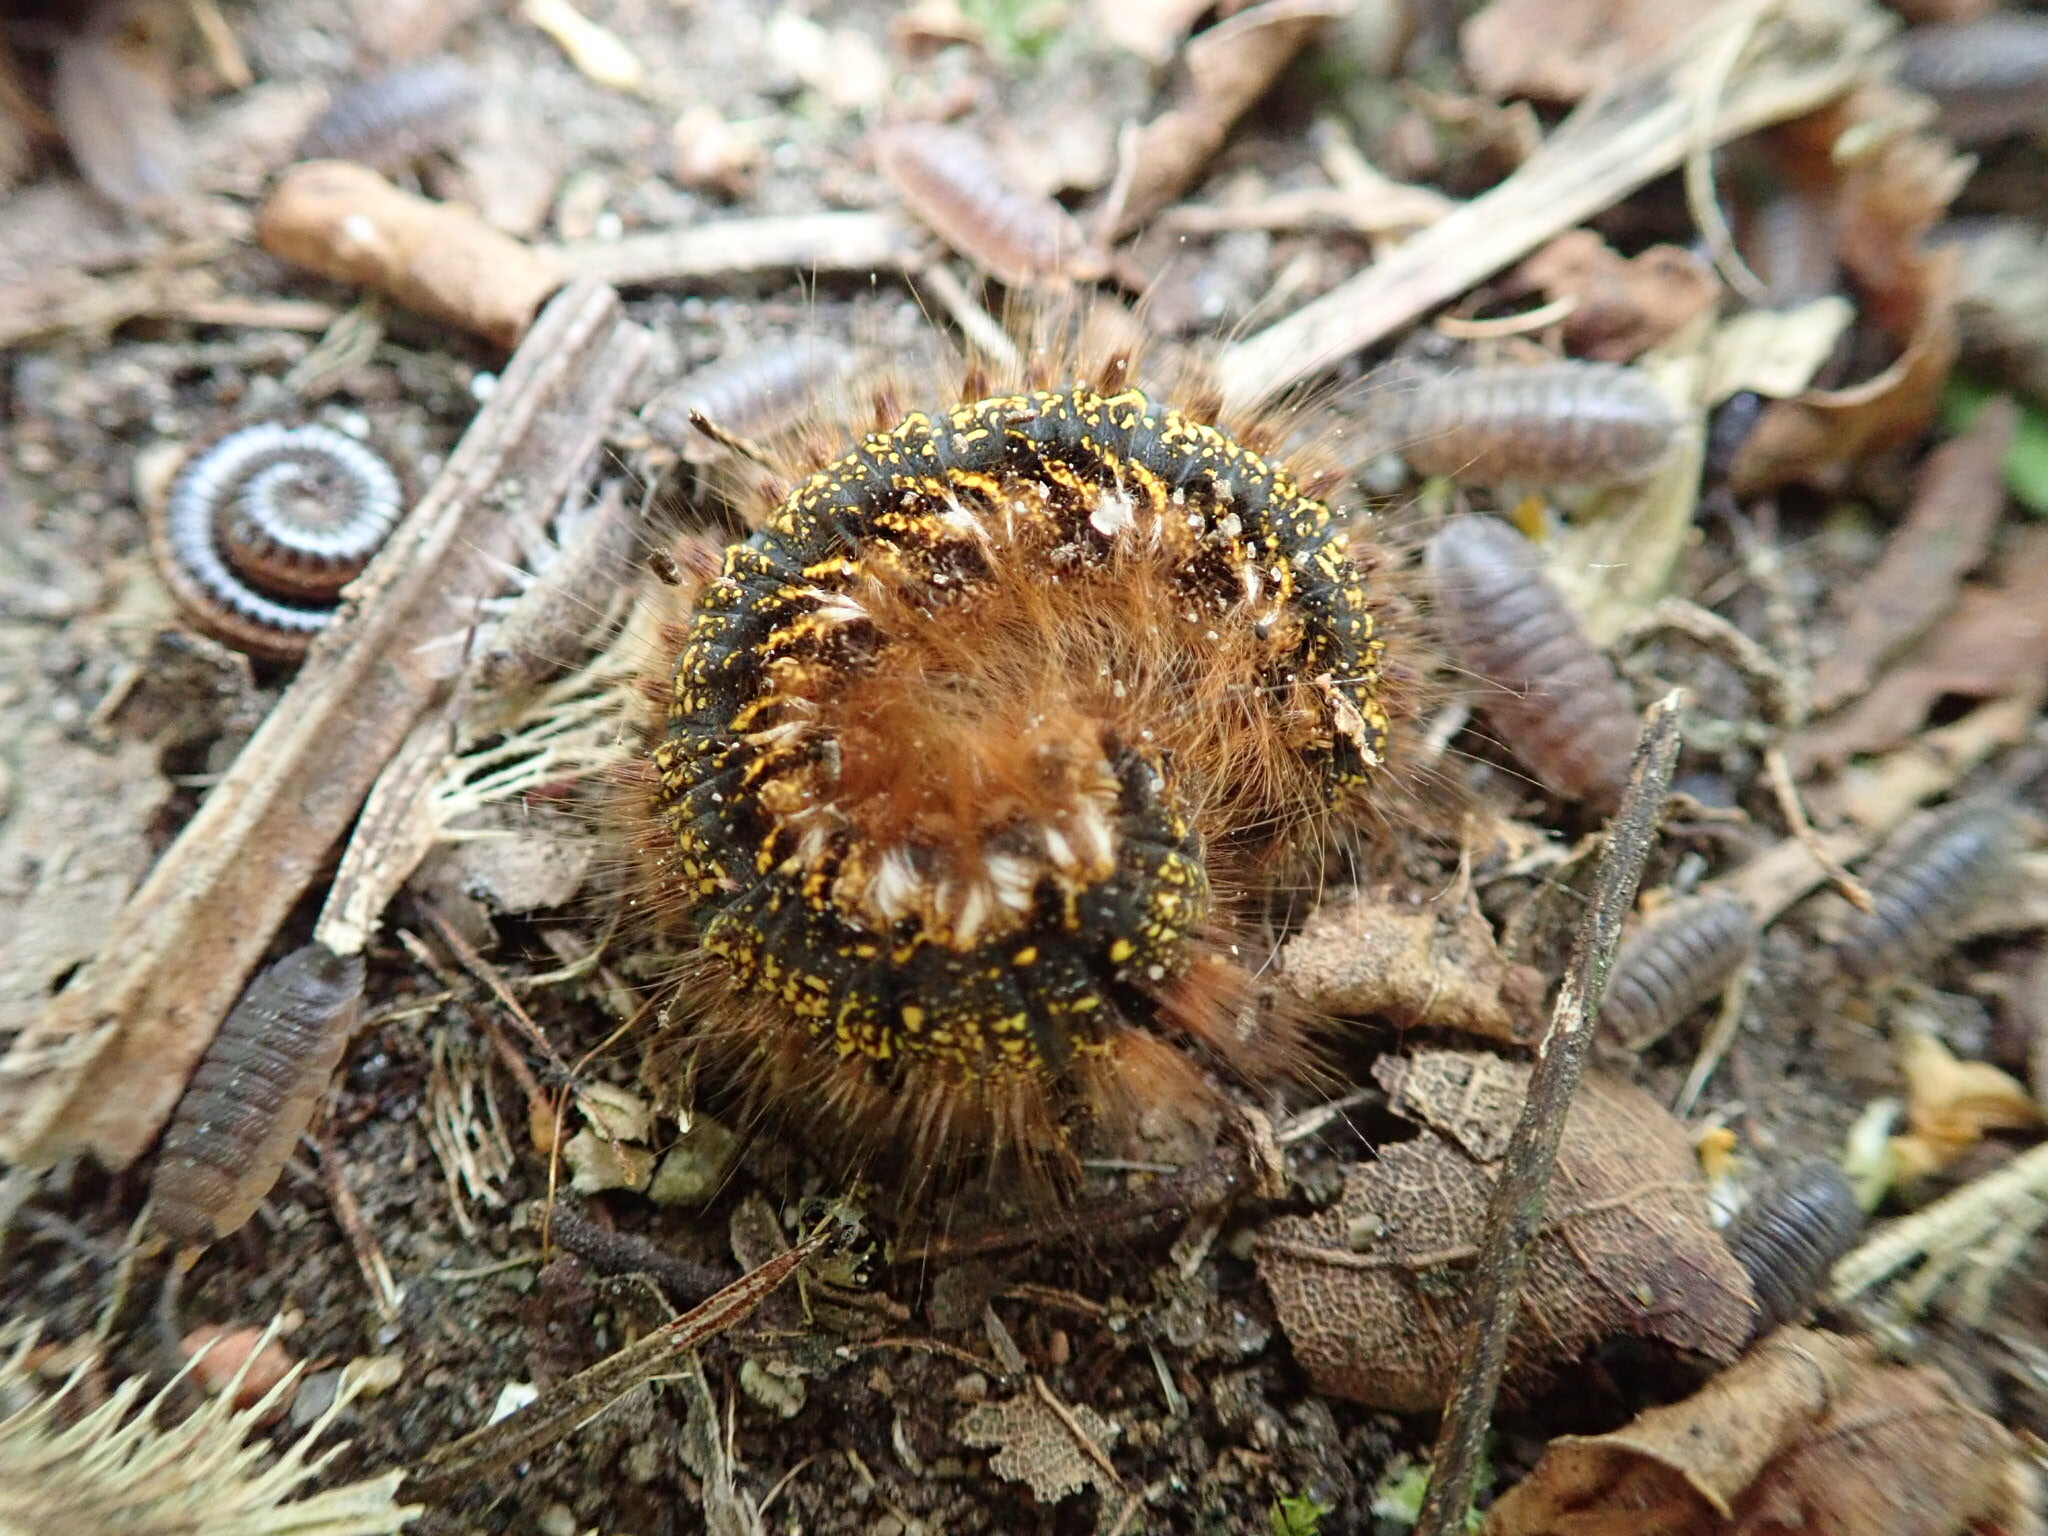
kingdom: Animalia
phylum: Arthropoda
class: Insecta
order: Lepidoptera
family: Lasiocampidae
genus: Euthrix
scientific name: Euthrix potatoria
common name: Drinker
